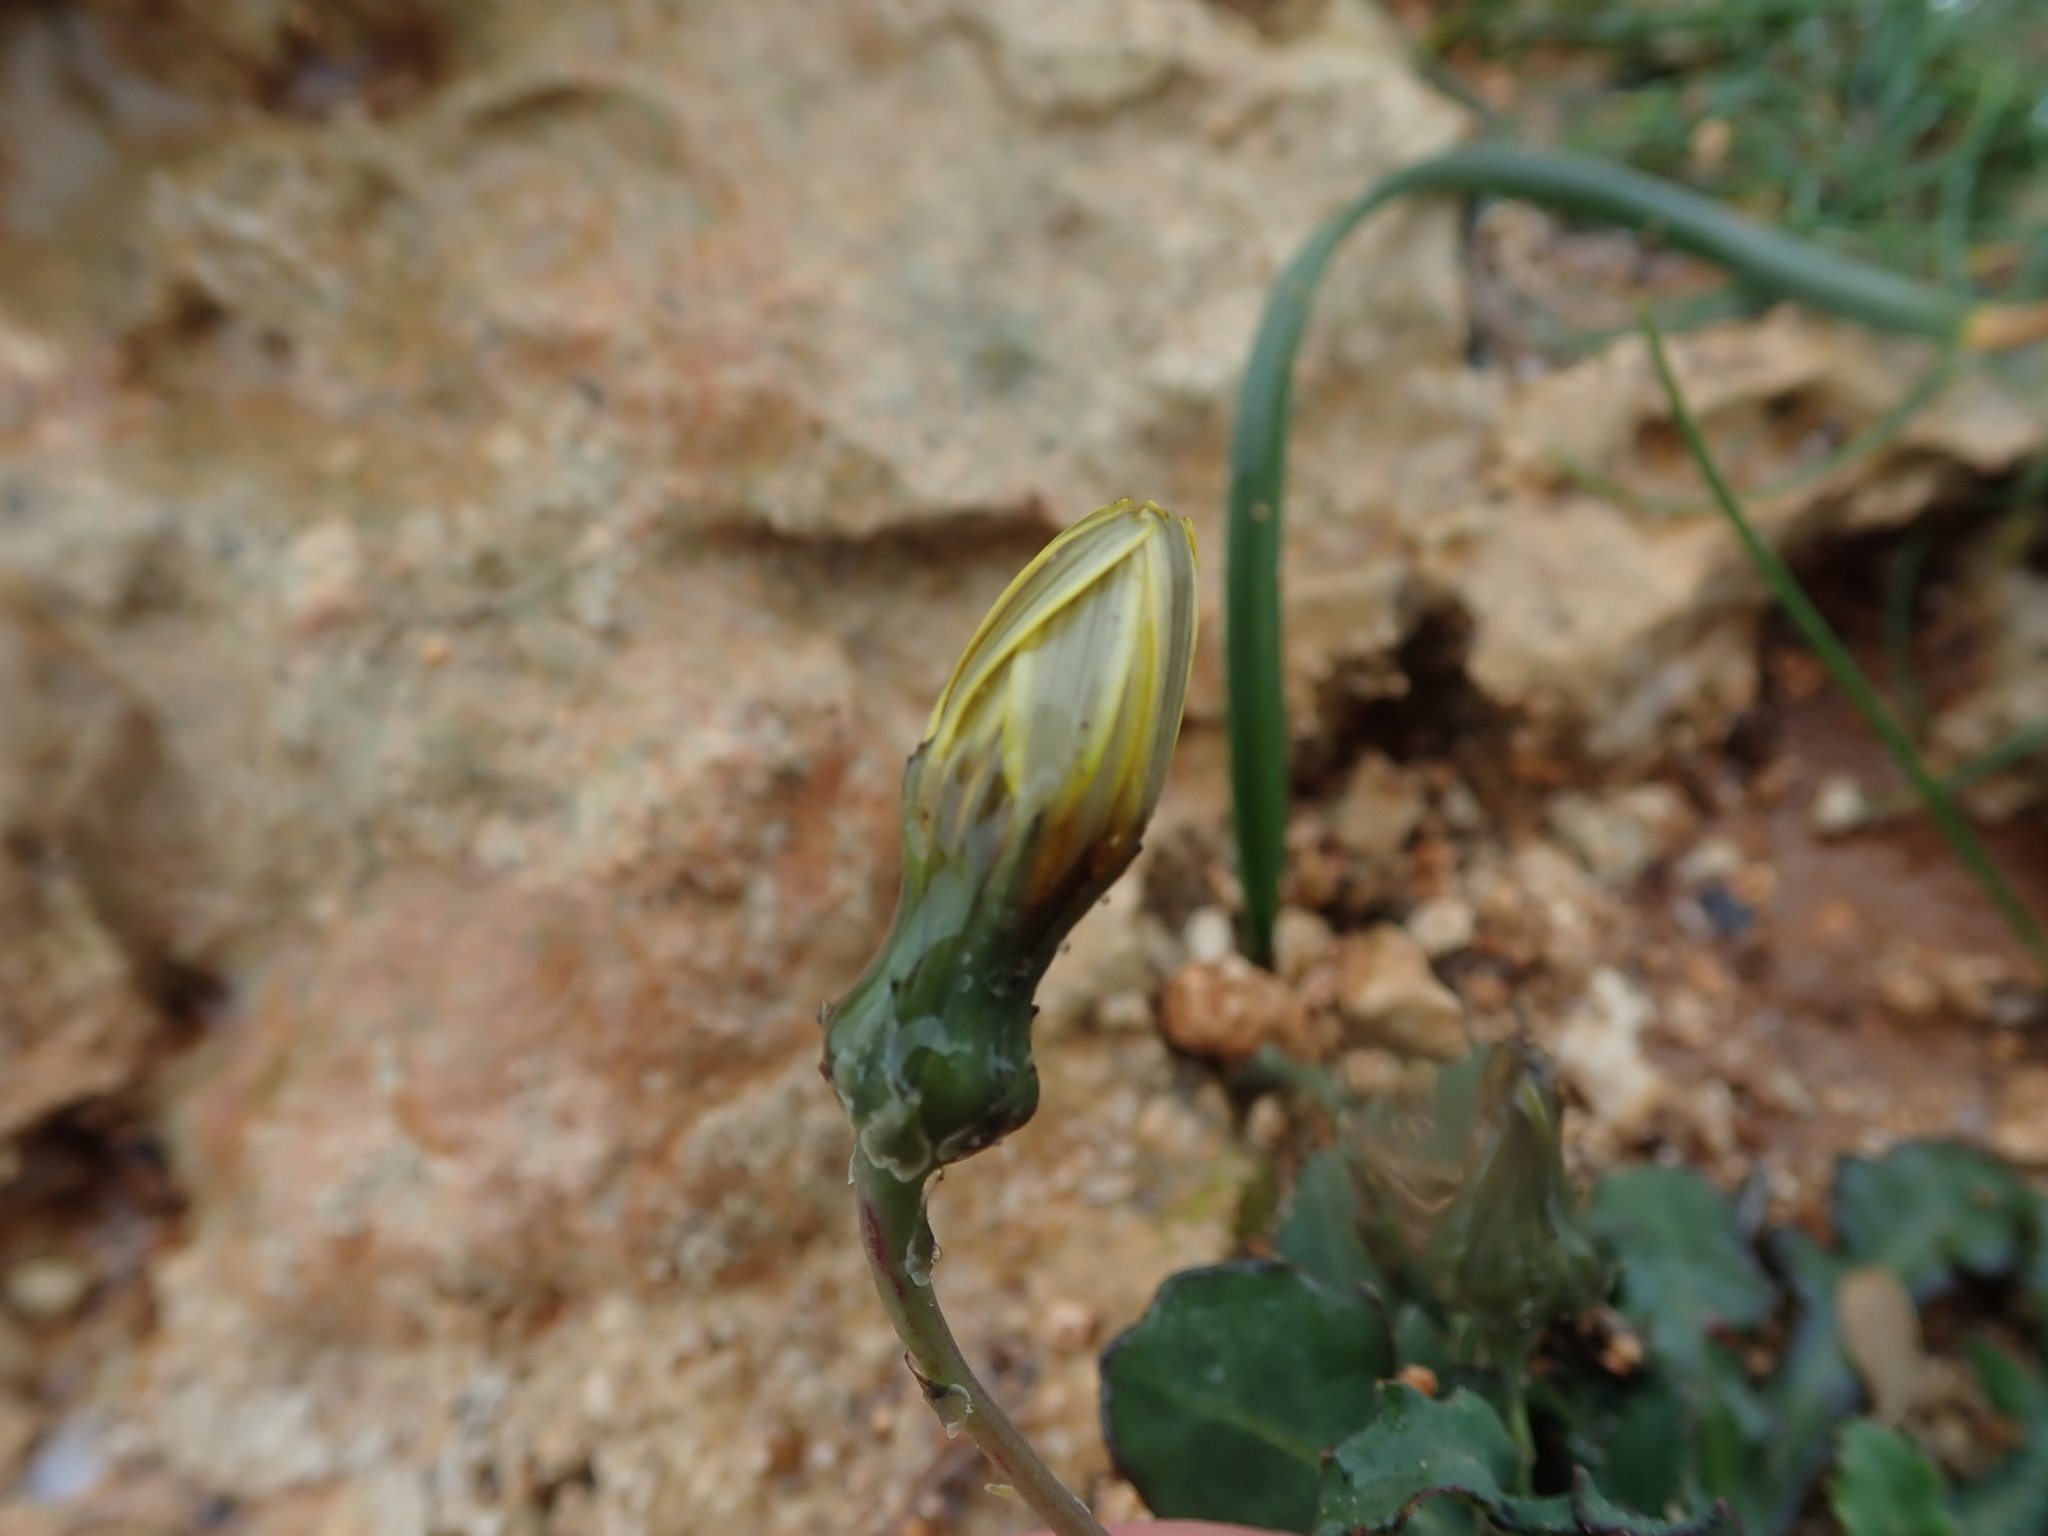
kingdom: Plantae
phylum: Tracheophyta
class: Magnoliopsida
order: Asterales
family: Asteraceae
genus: Reichardia
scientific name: Reichardia picroides
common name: Common brighteyes
